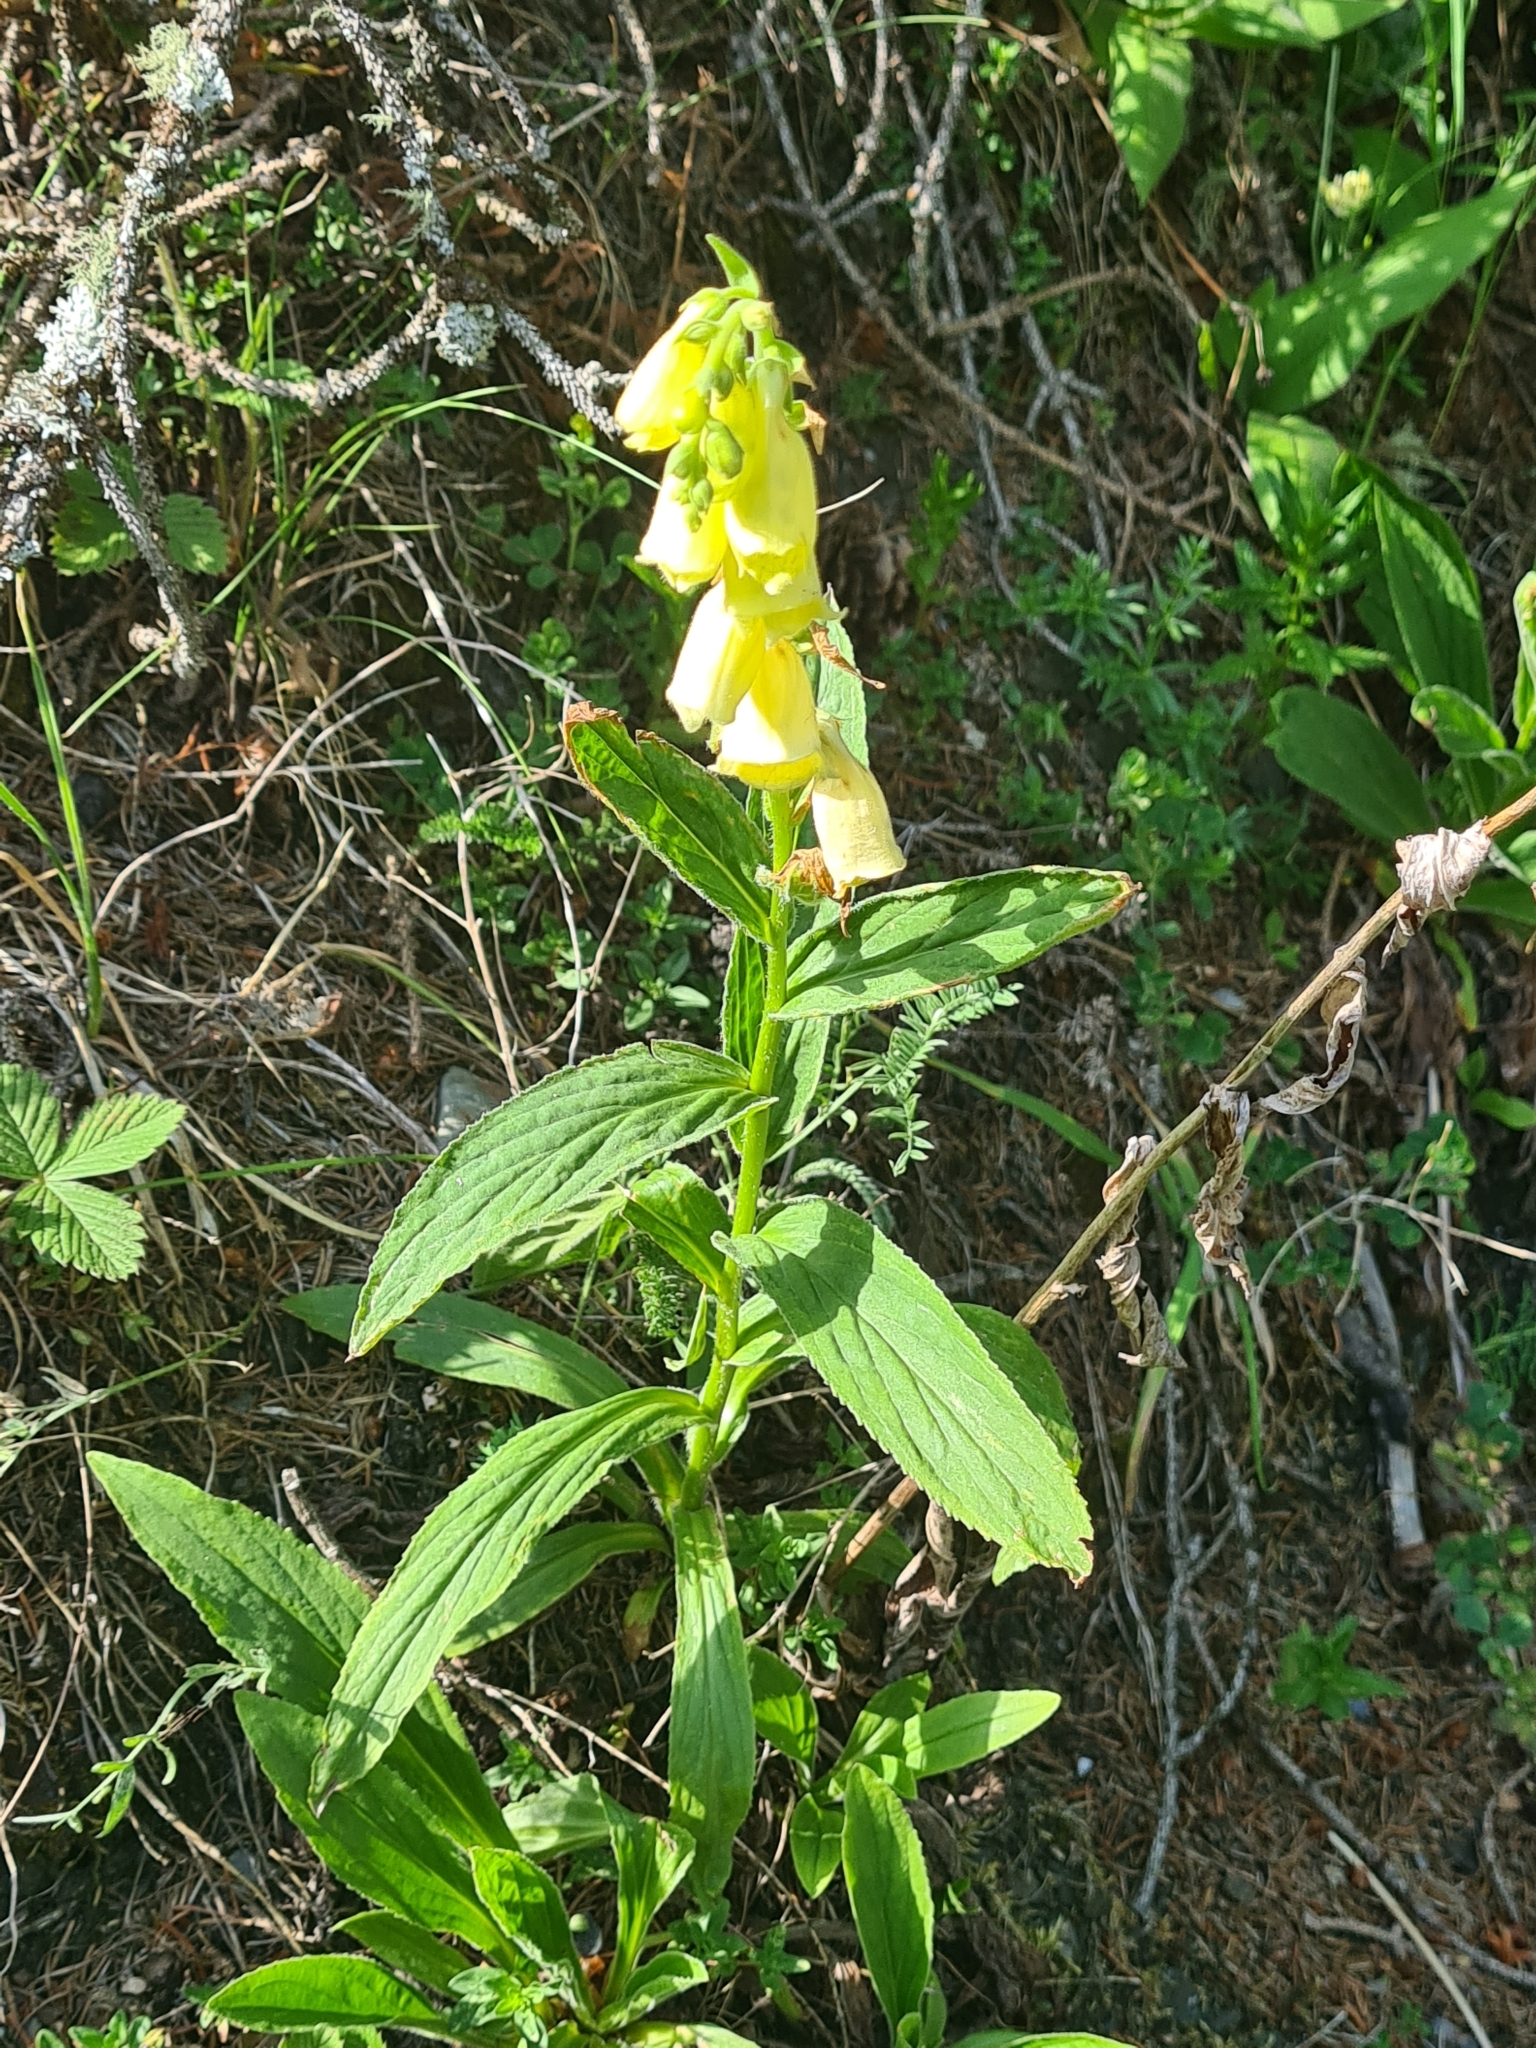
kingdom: Plantae
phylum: Tracheophyta
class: Magnoliopsida
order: Lamiales
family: Plantaginaceae
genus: Digitalis
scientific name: Digitalis grandiflora
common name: Yellow foxglove
